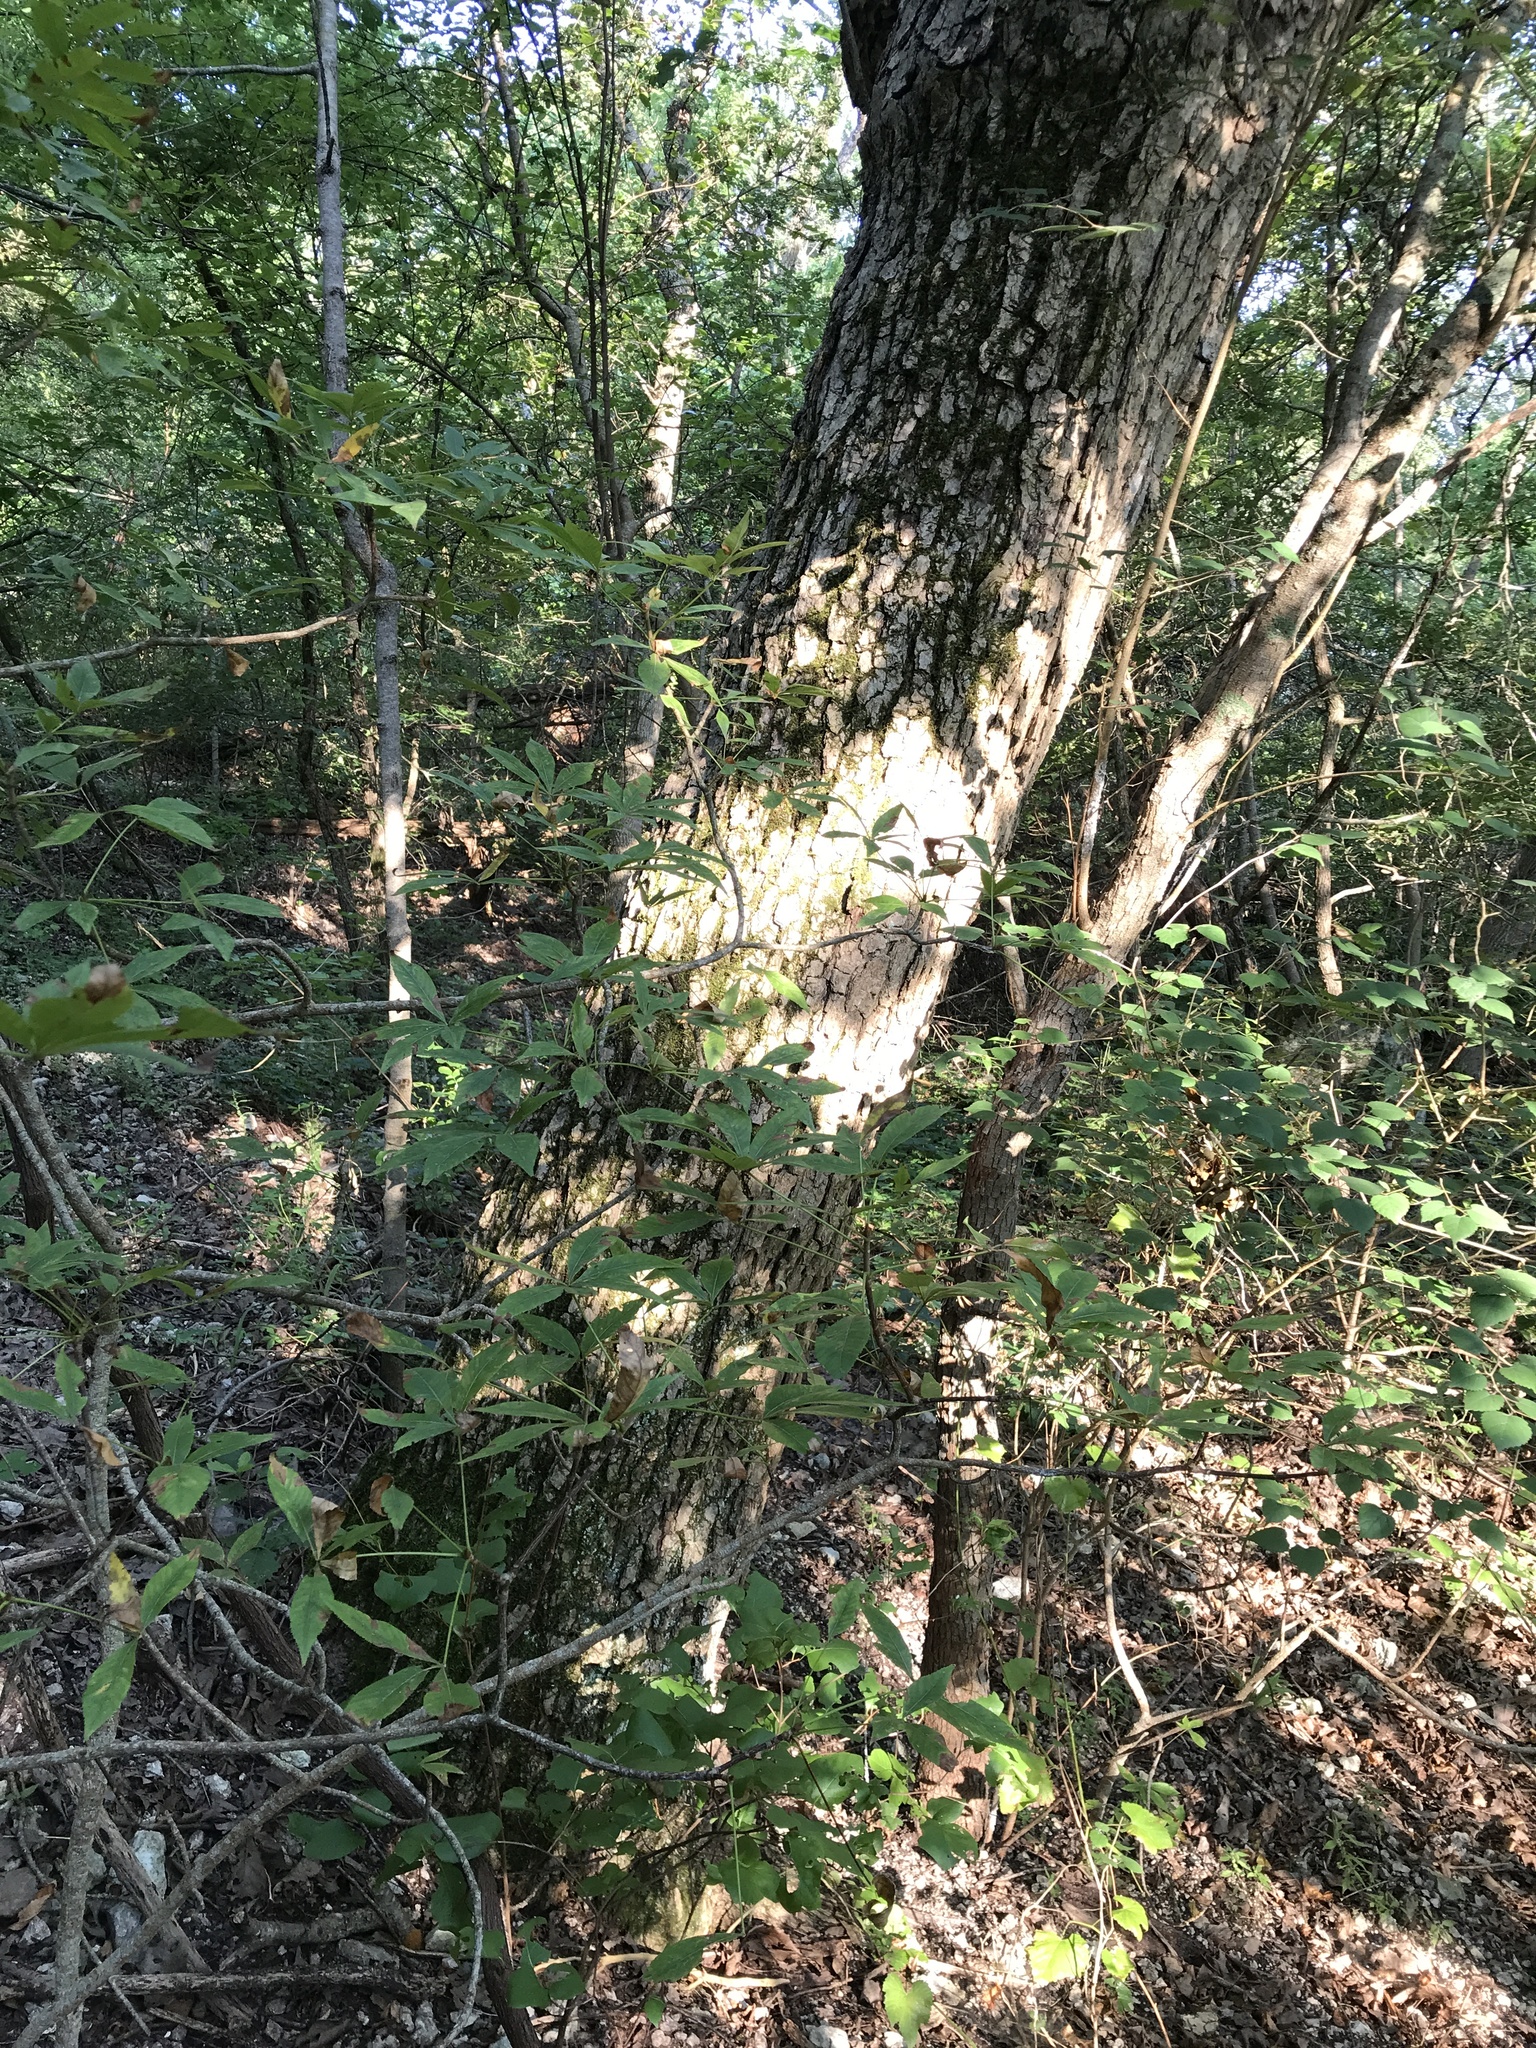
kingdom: Plantae
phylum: Tracheophyta
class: Magnoliopsida
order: Fagales
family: Fagaceae
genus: Quercus
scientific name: Quercus muehlenbergii
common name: Chinkapin oak
